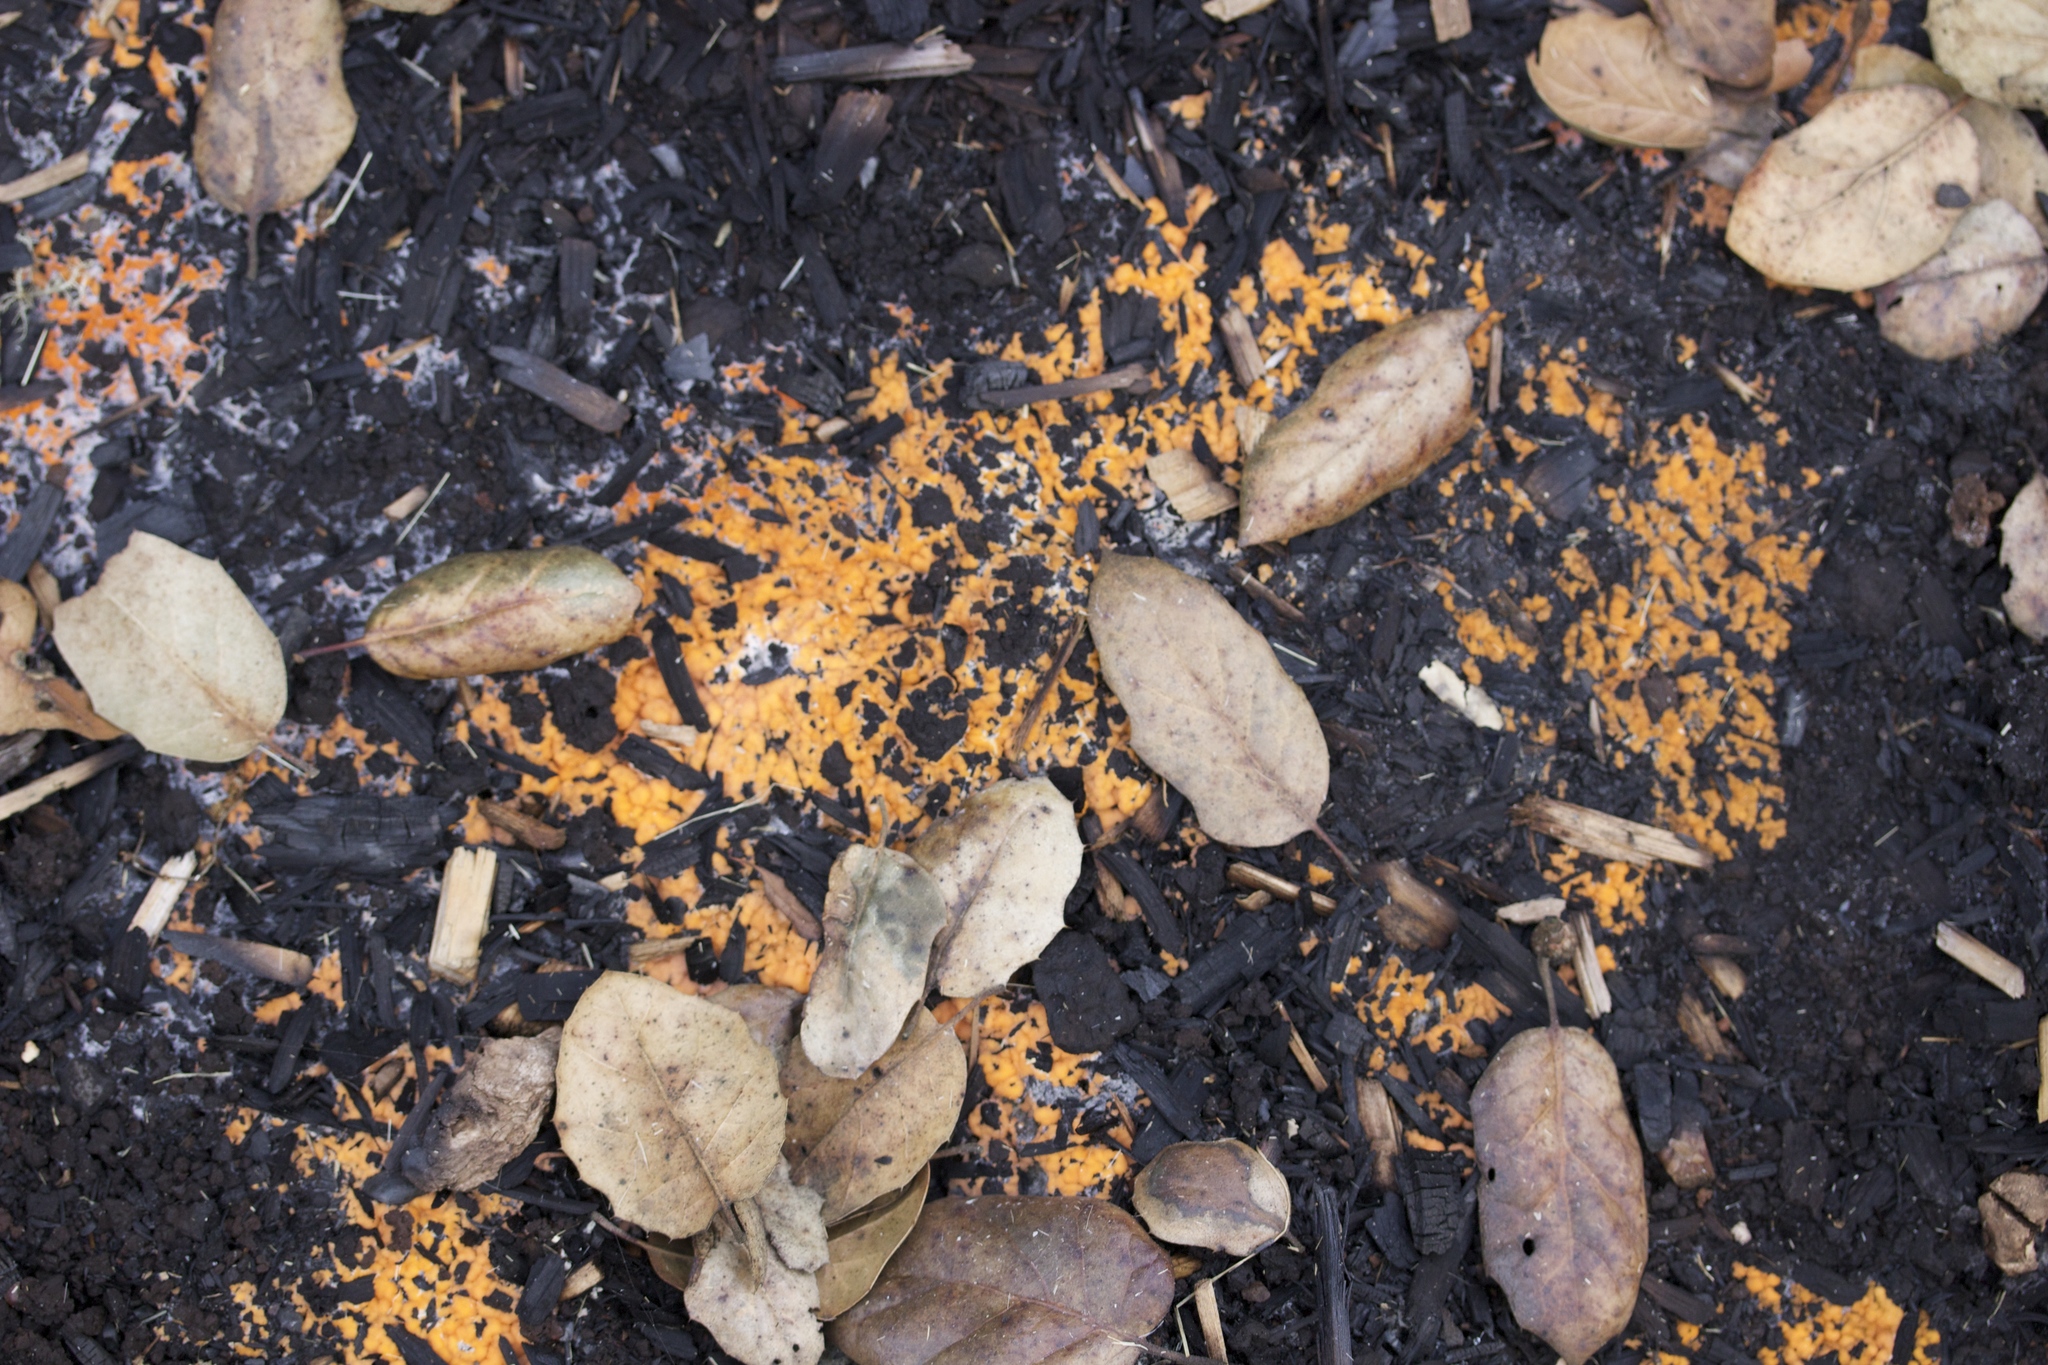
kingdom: Fungi
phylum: Ascomycota
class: Pezizomycetes
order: Pezizales
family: Pyronemataceae
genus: Pyronema
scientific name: Pyronema omphalodes
